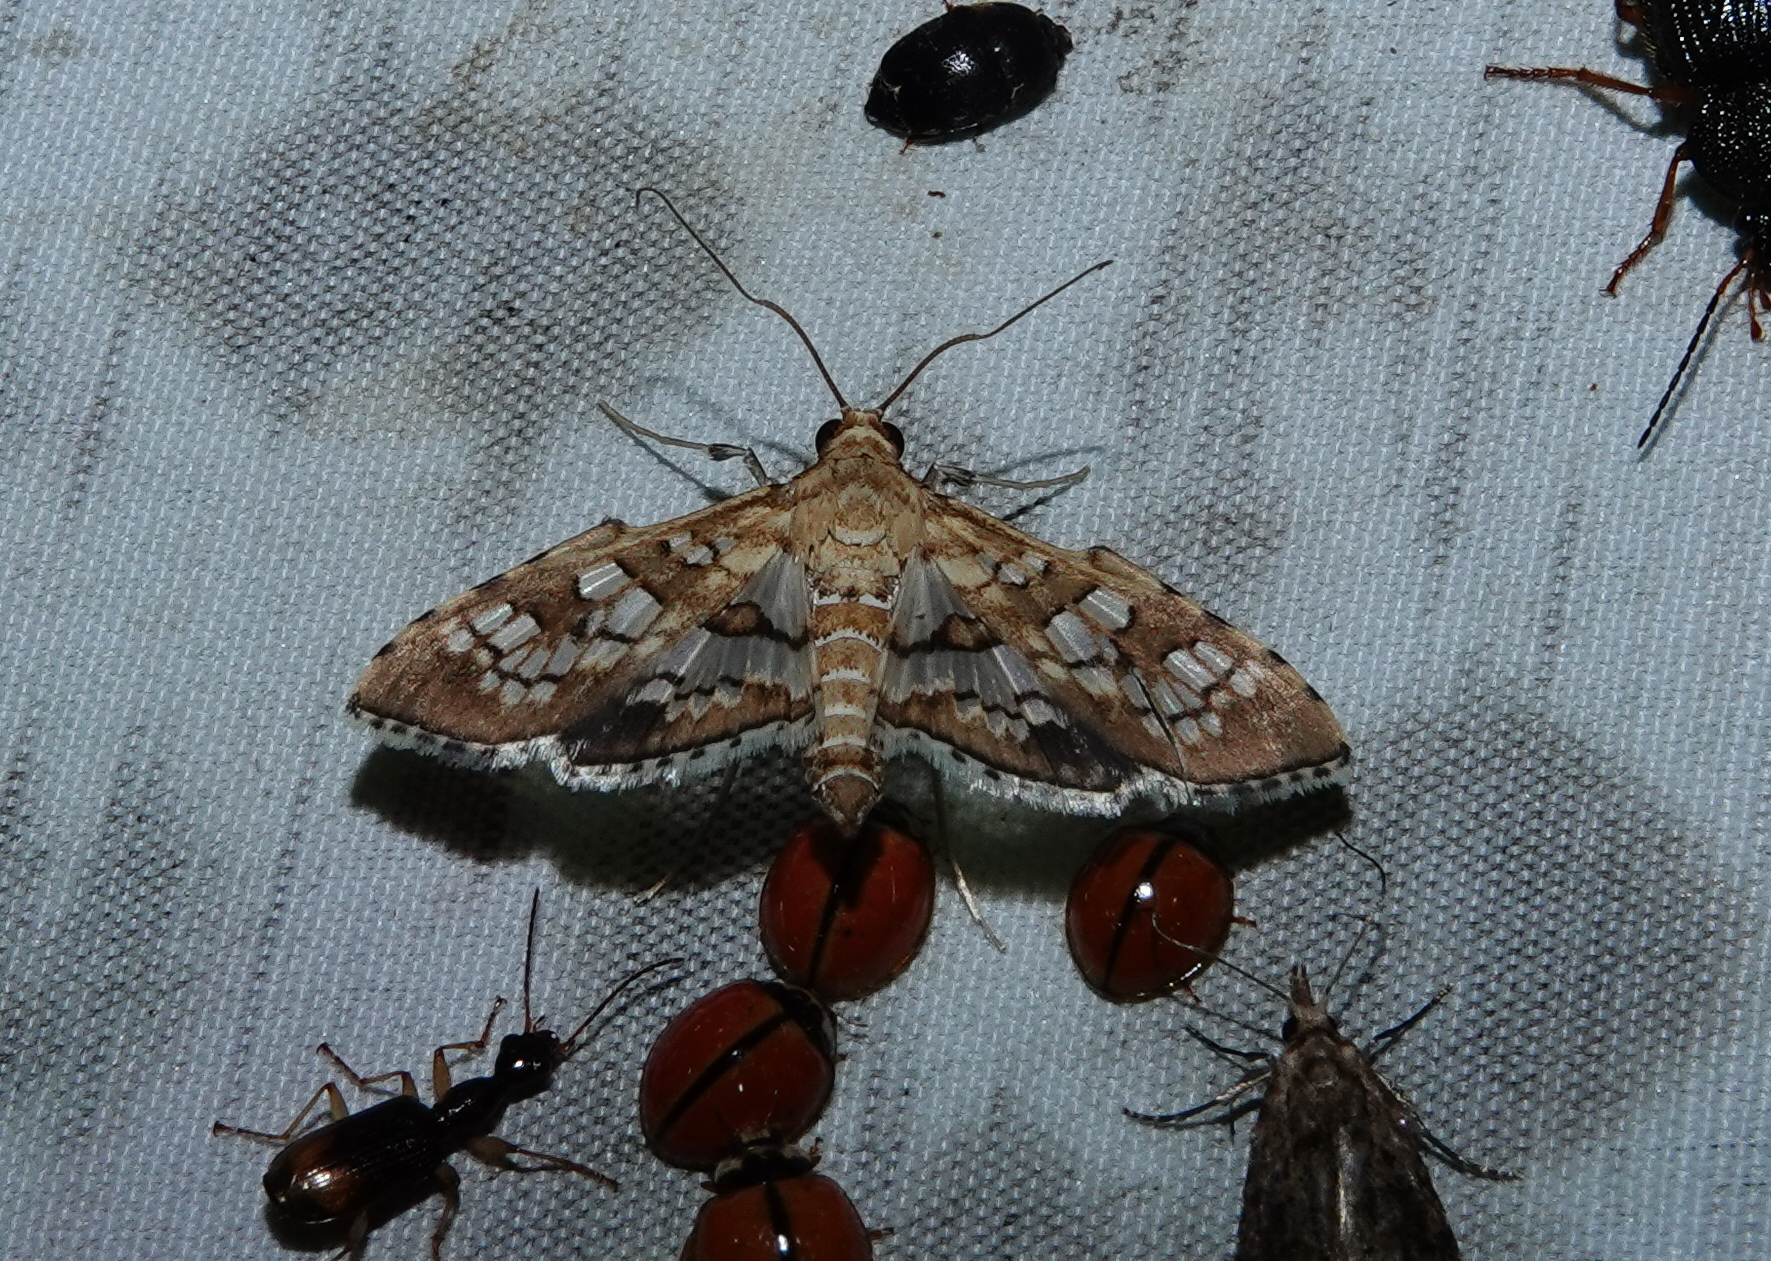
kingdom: Animalia
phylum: Arthropoda
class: Insecta
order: Lepidoptera
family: Crambidae
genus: Sameodes
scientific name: Sameodes cancellalis
